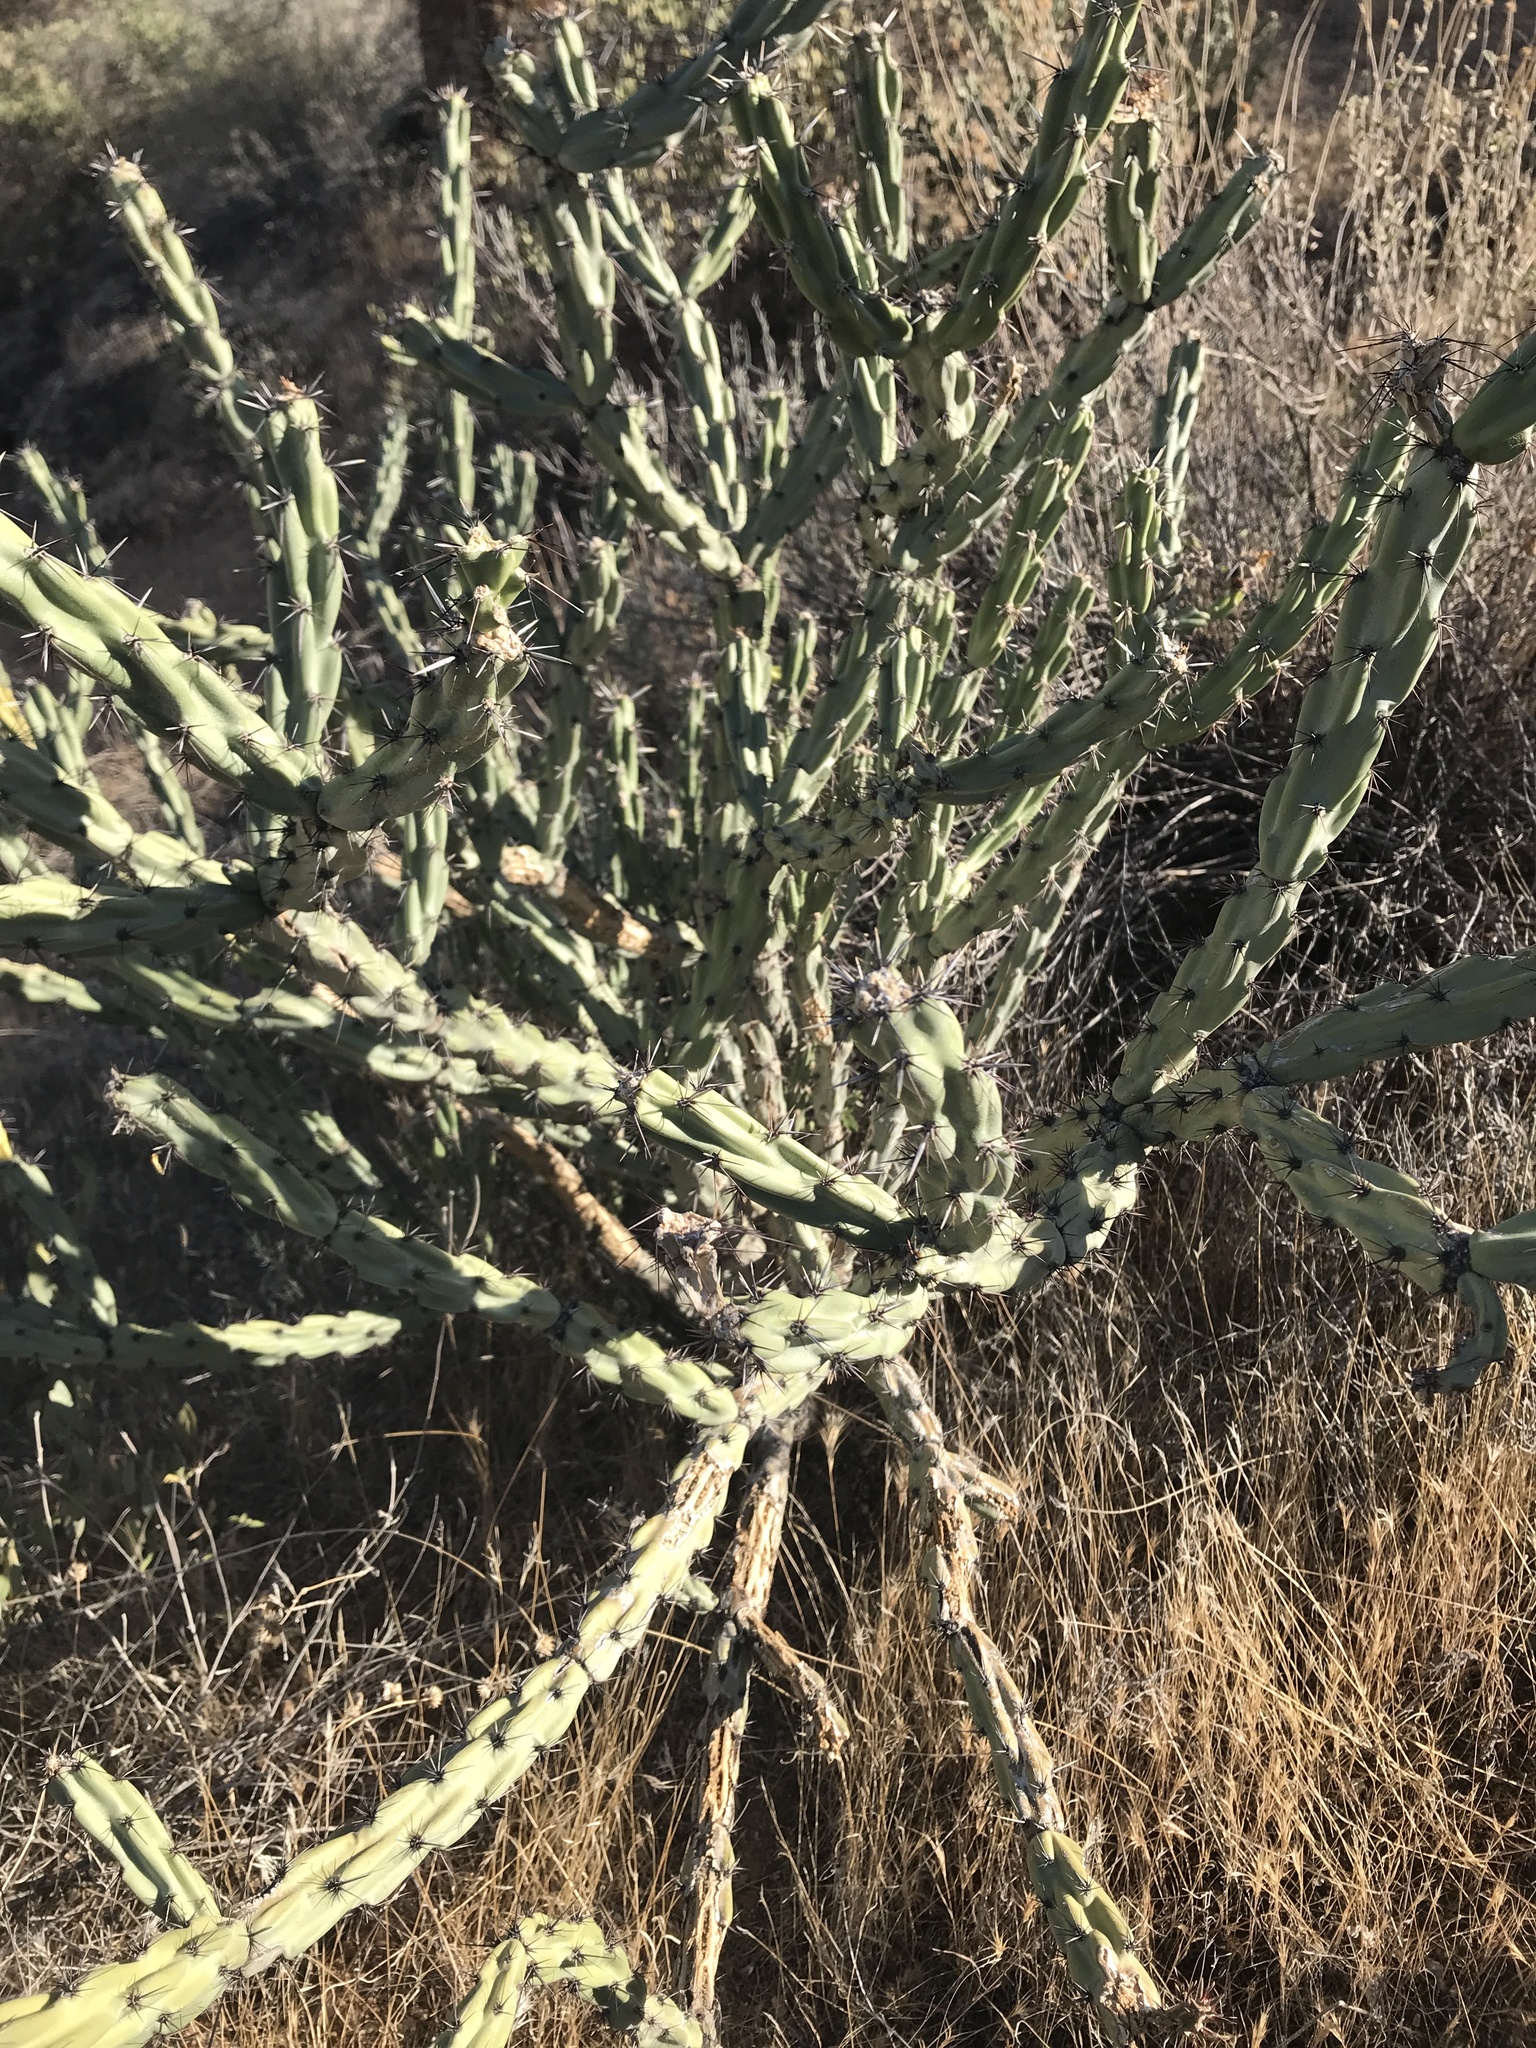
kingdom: Plantae
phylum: Tracheophyta
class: Magnoliopsida
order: Caryophyllales
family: Cactaceae
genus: Cylindropuntia
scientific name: Cylindropuntia acanthocarpa
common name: Buckhorn cholla
